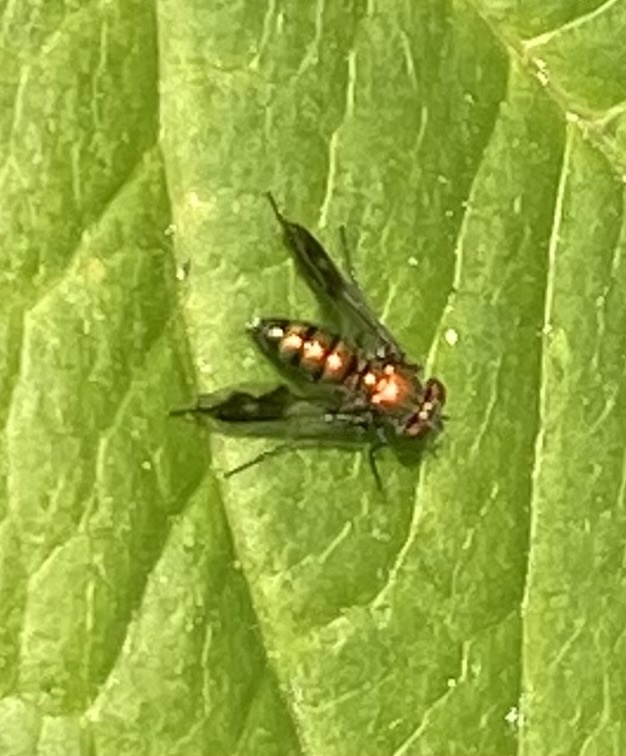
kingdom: Animalia
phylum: Arthropoda
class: Insecta
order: Diptera
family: Dolichopodidae
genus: Condylostylus
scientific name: Condylostylus patibulatus
